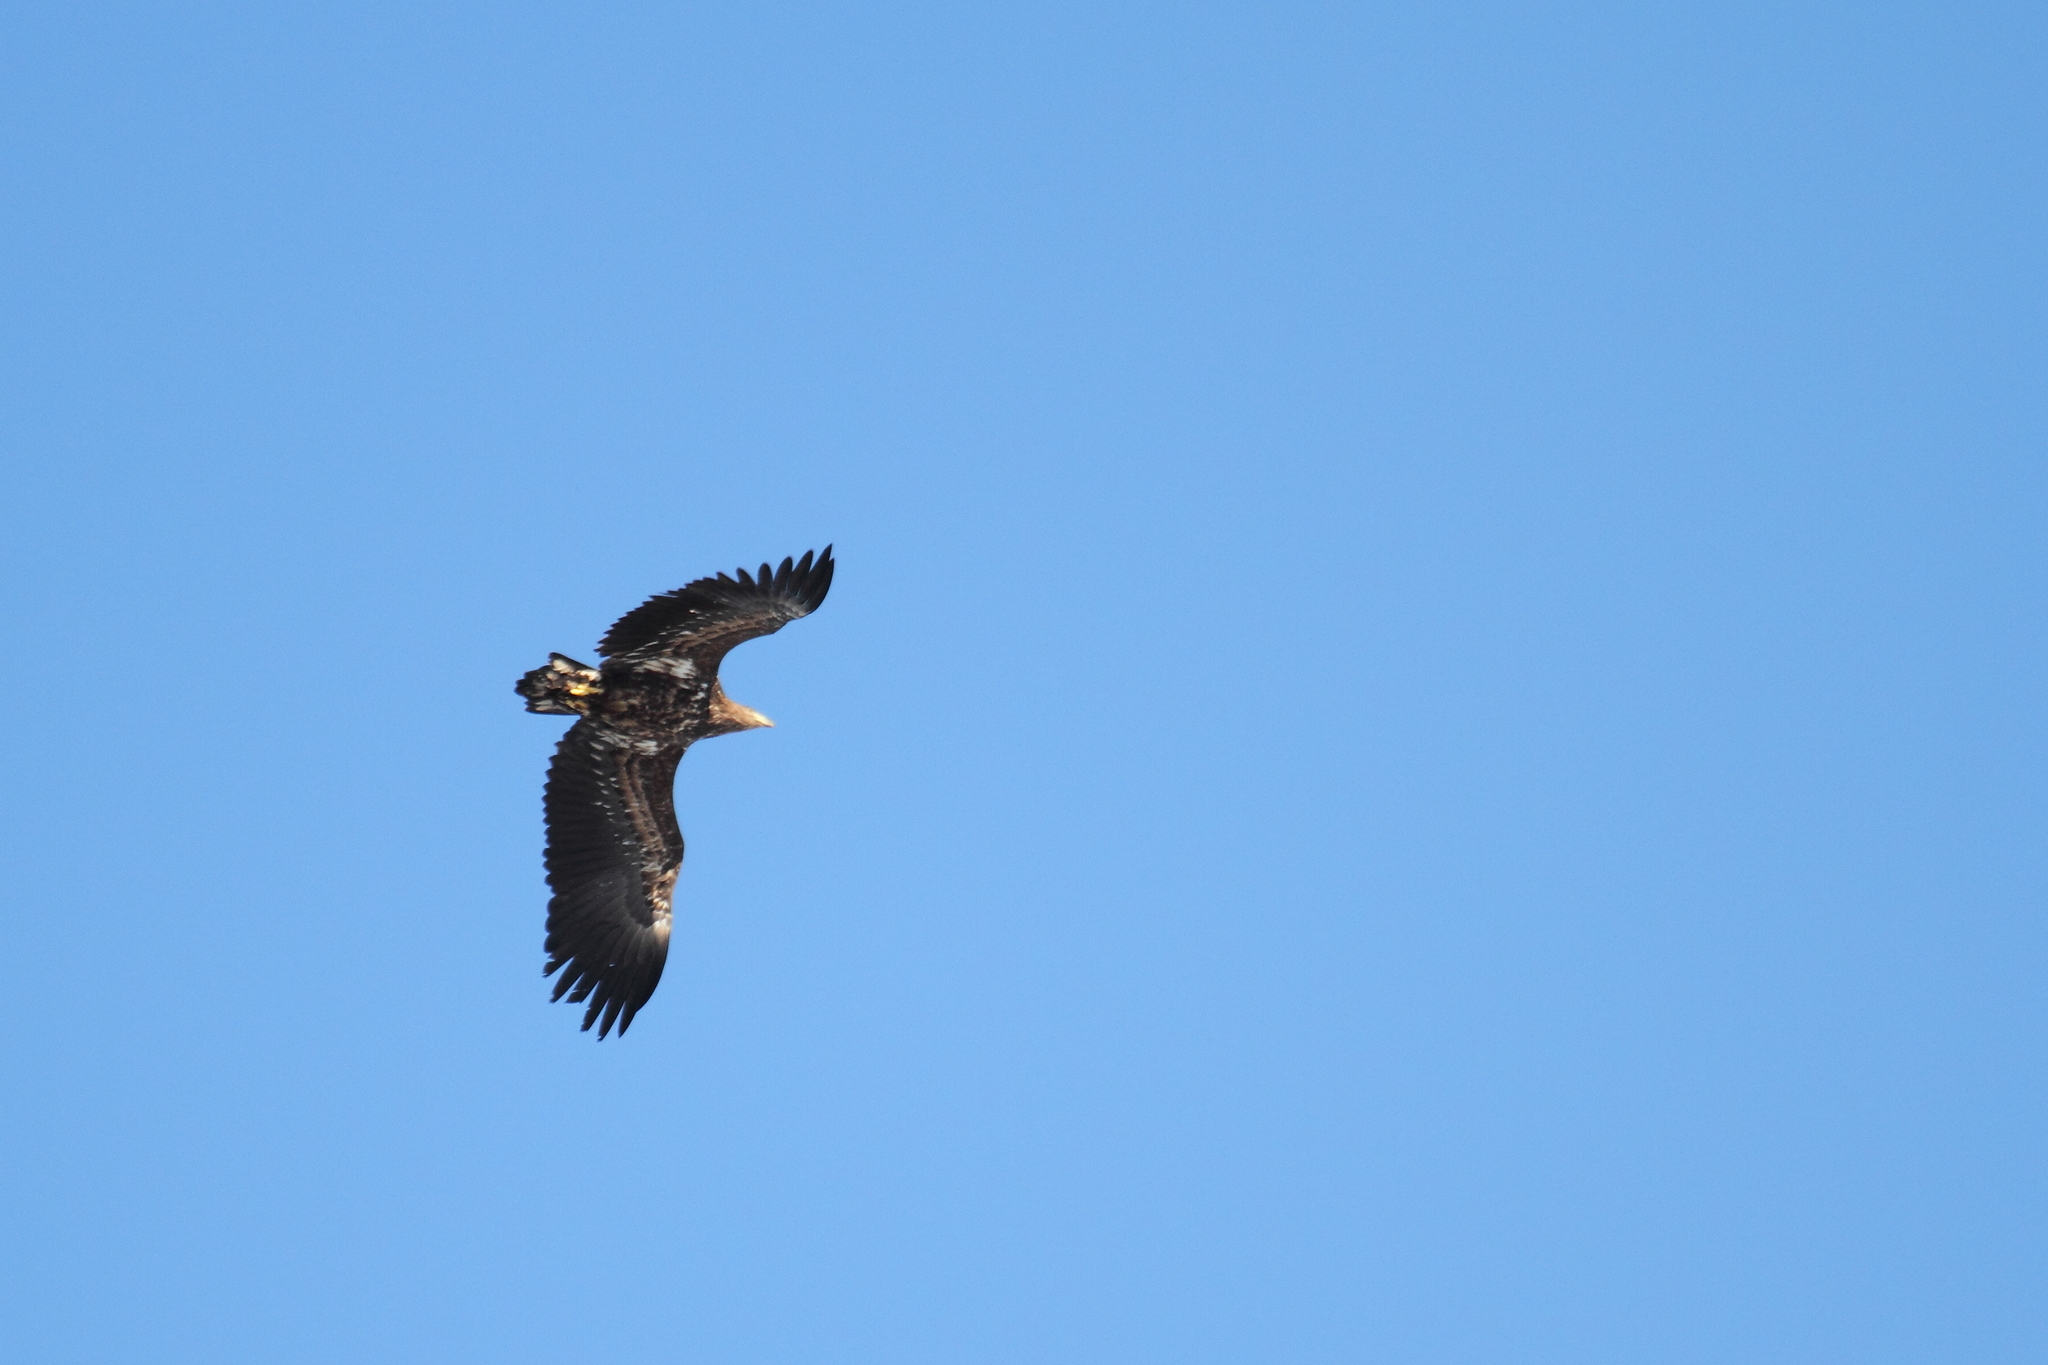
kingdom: Animalia
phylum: Chordata
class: Aves
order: Accipitriformes
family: Accipitridae
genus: Haliaeetus
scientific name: Haliaeetus albicilla
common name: White-tailed eagle
